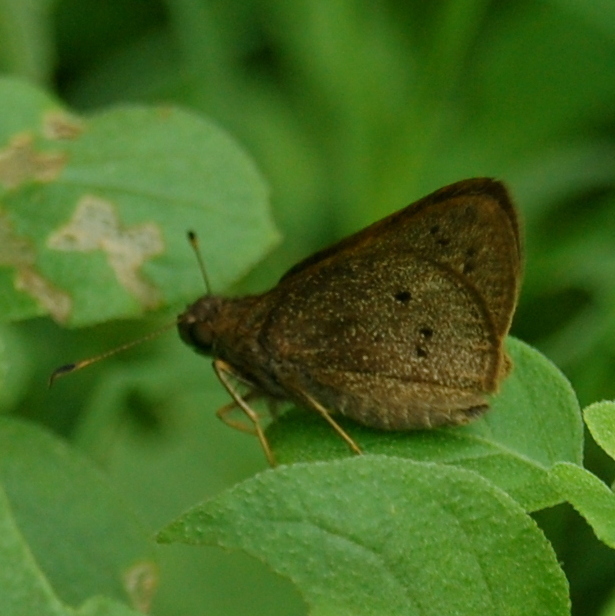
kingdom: Animalia
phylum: Arthropoda
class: Insecta
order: Lepidoptera
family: Hesperiidae
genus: Mucia
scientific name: Mucia zygia
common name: Black-dotted skipper
